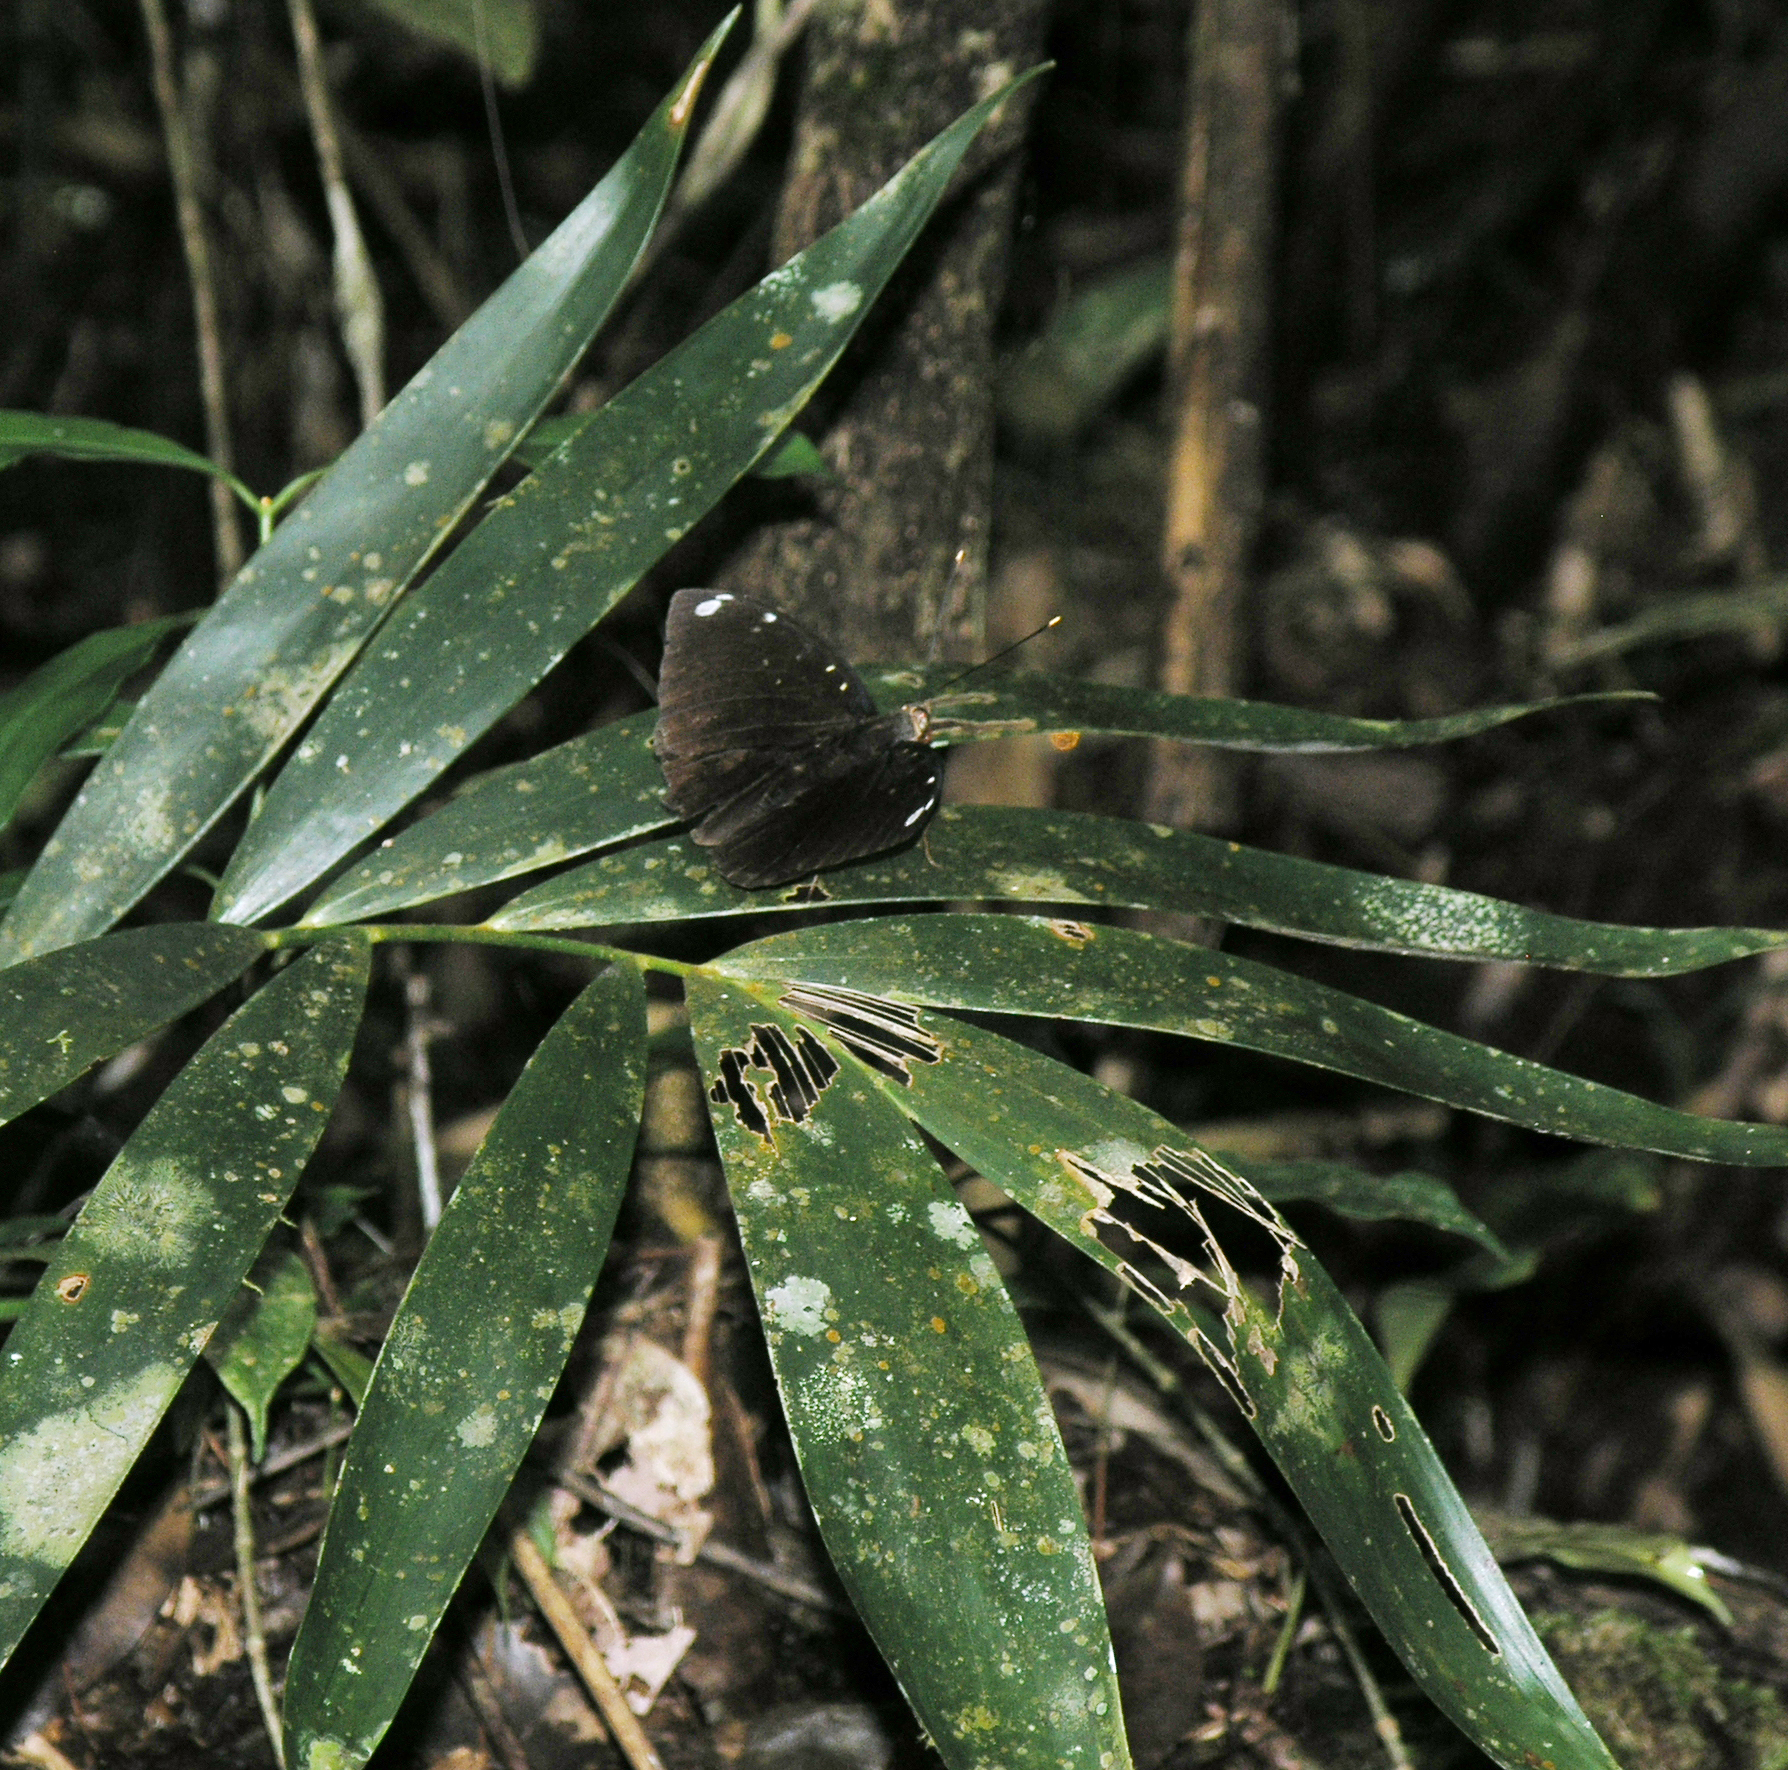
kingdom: Animalia
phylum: Arthropoda
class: Insecta
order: Lepidoptera
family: Nymphalidae
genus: Lexias
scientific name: Lexias
